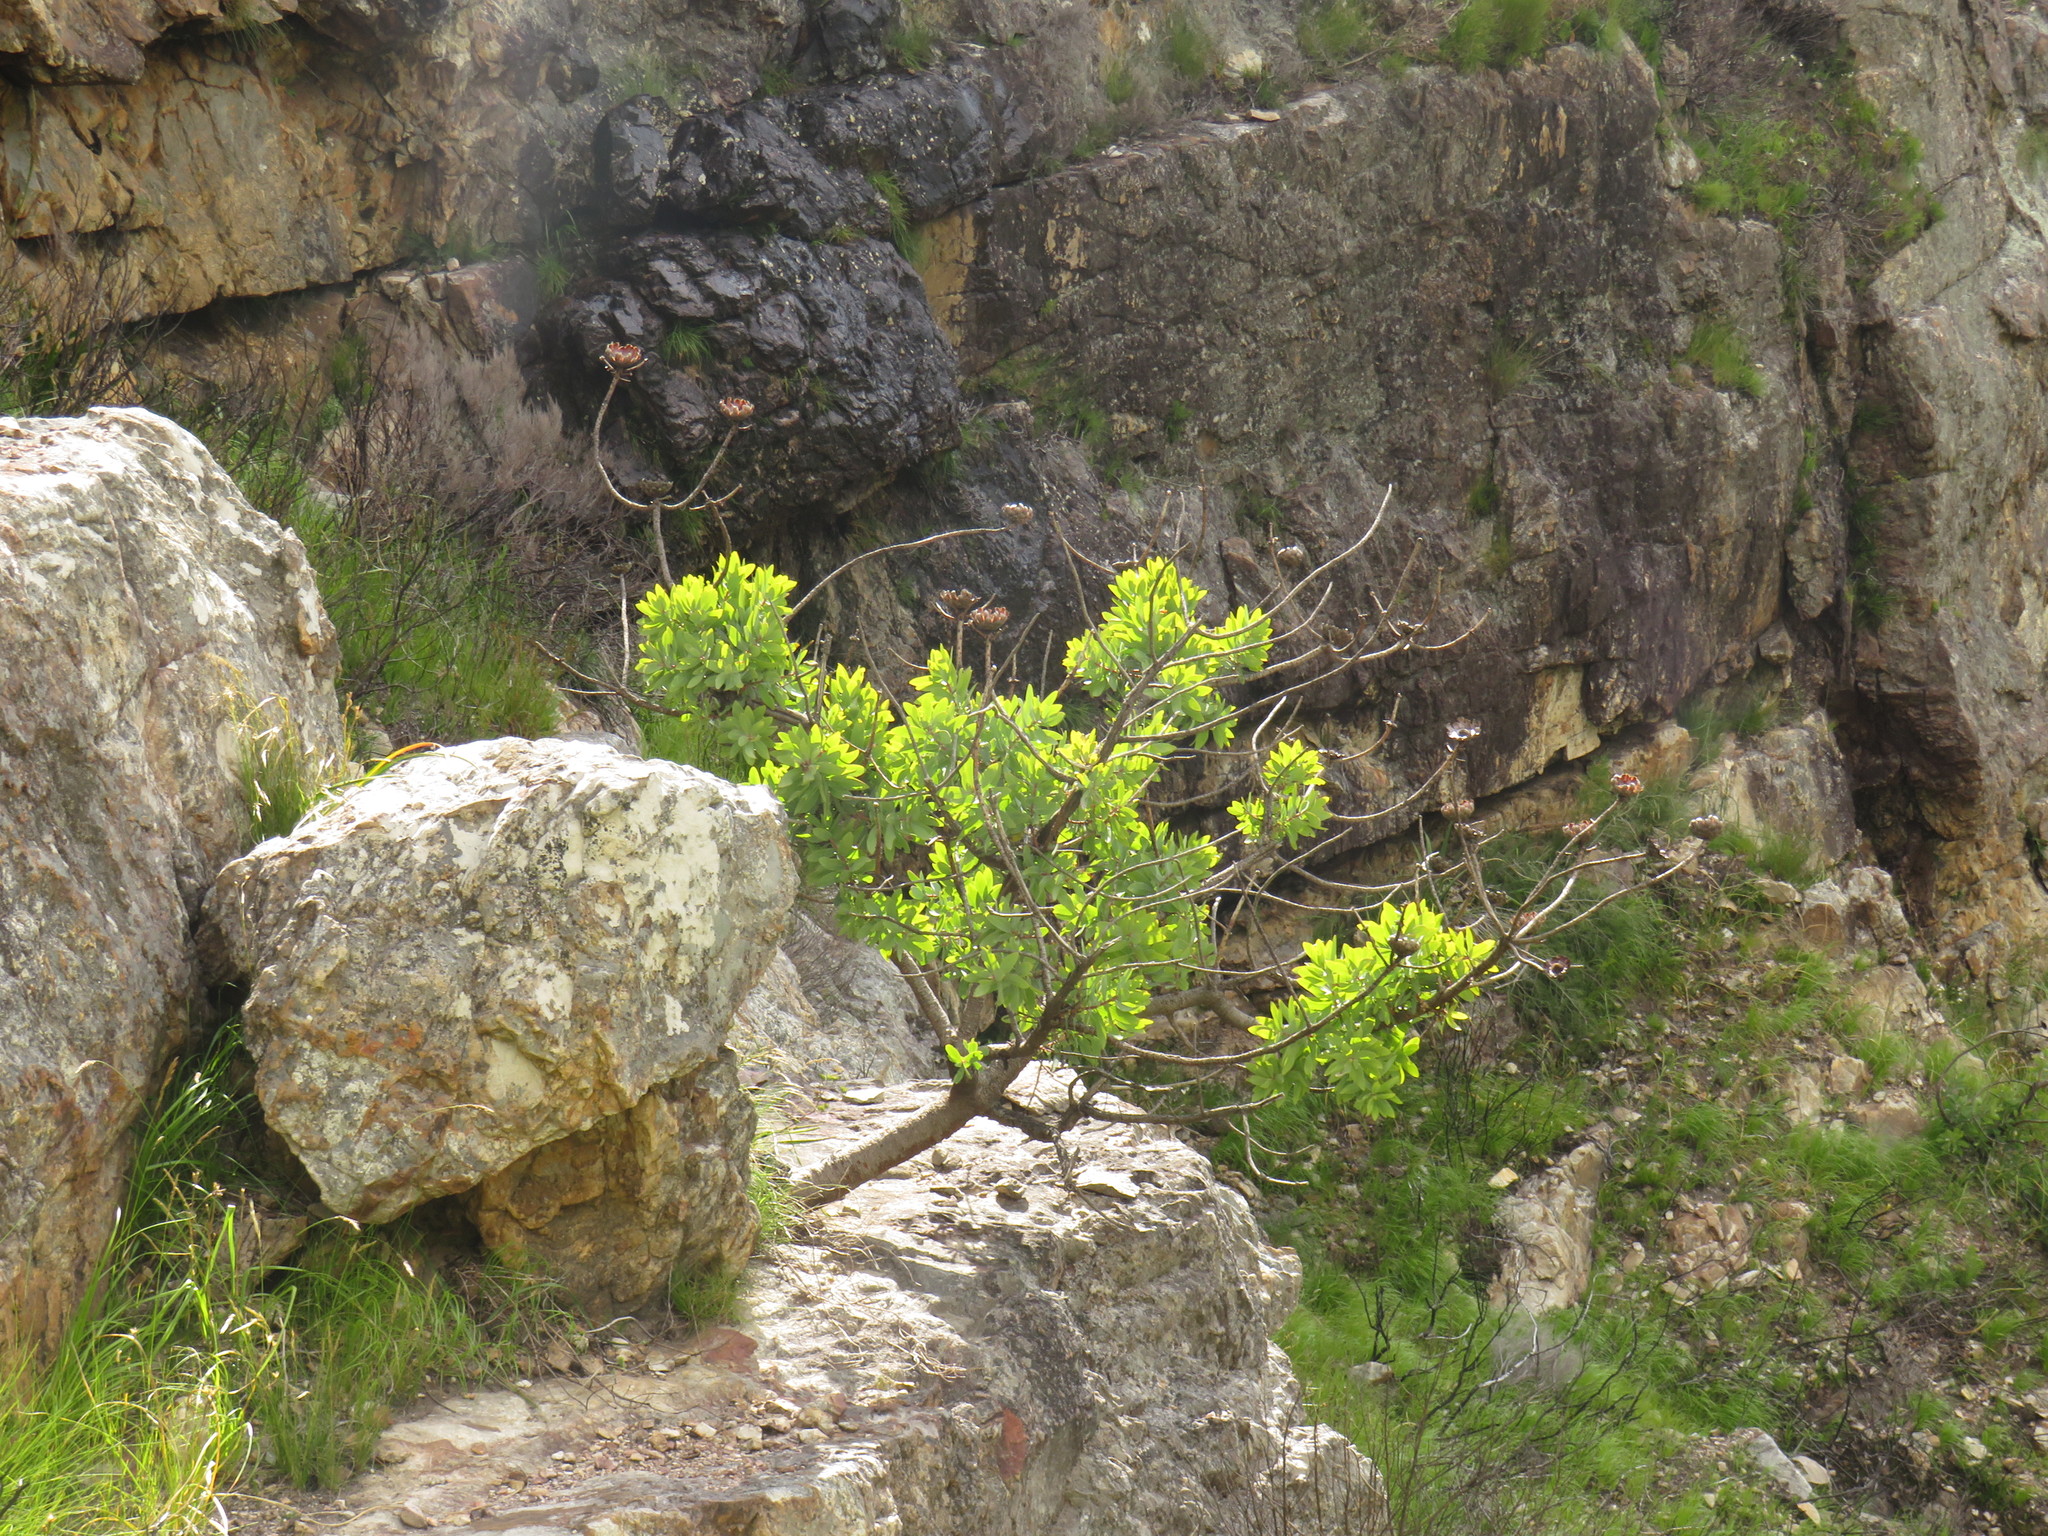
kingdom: Plantae
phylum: Tracheophyta
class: Magnoliopsida
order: Proteales
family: Proteaceae
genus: Protea
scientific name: Protea nitida
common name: Tree protea
